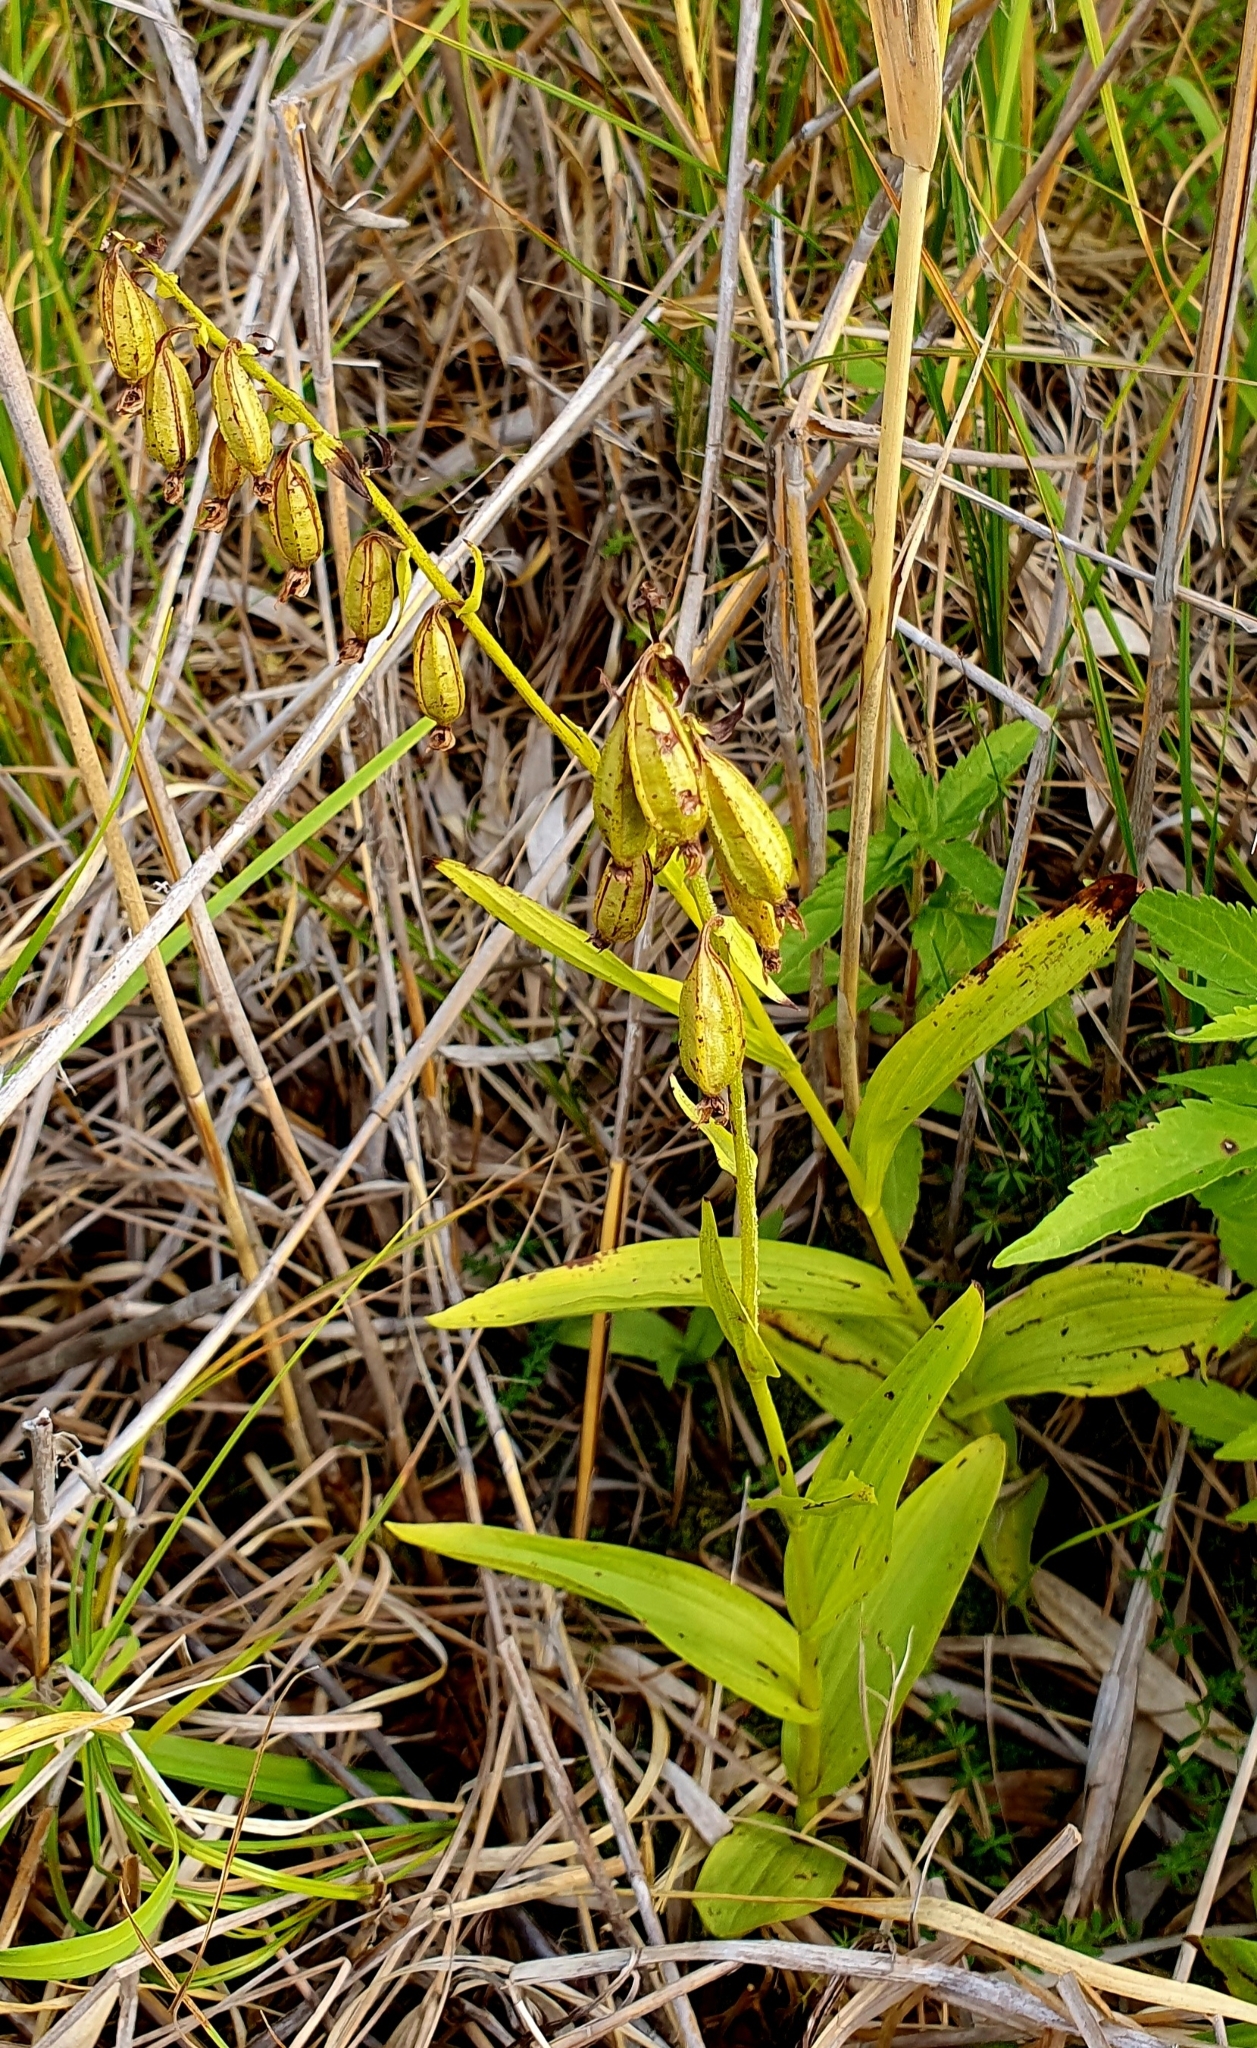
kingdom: Plantae
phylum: Tracheophyta
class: Liliopsida
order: Asparagales
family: Orchidaceae
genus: Epipactis
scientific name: Epipactis palustris
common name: Marsh helleborine
